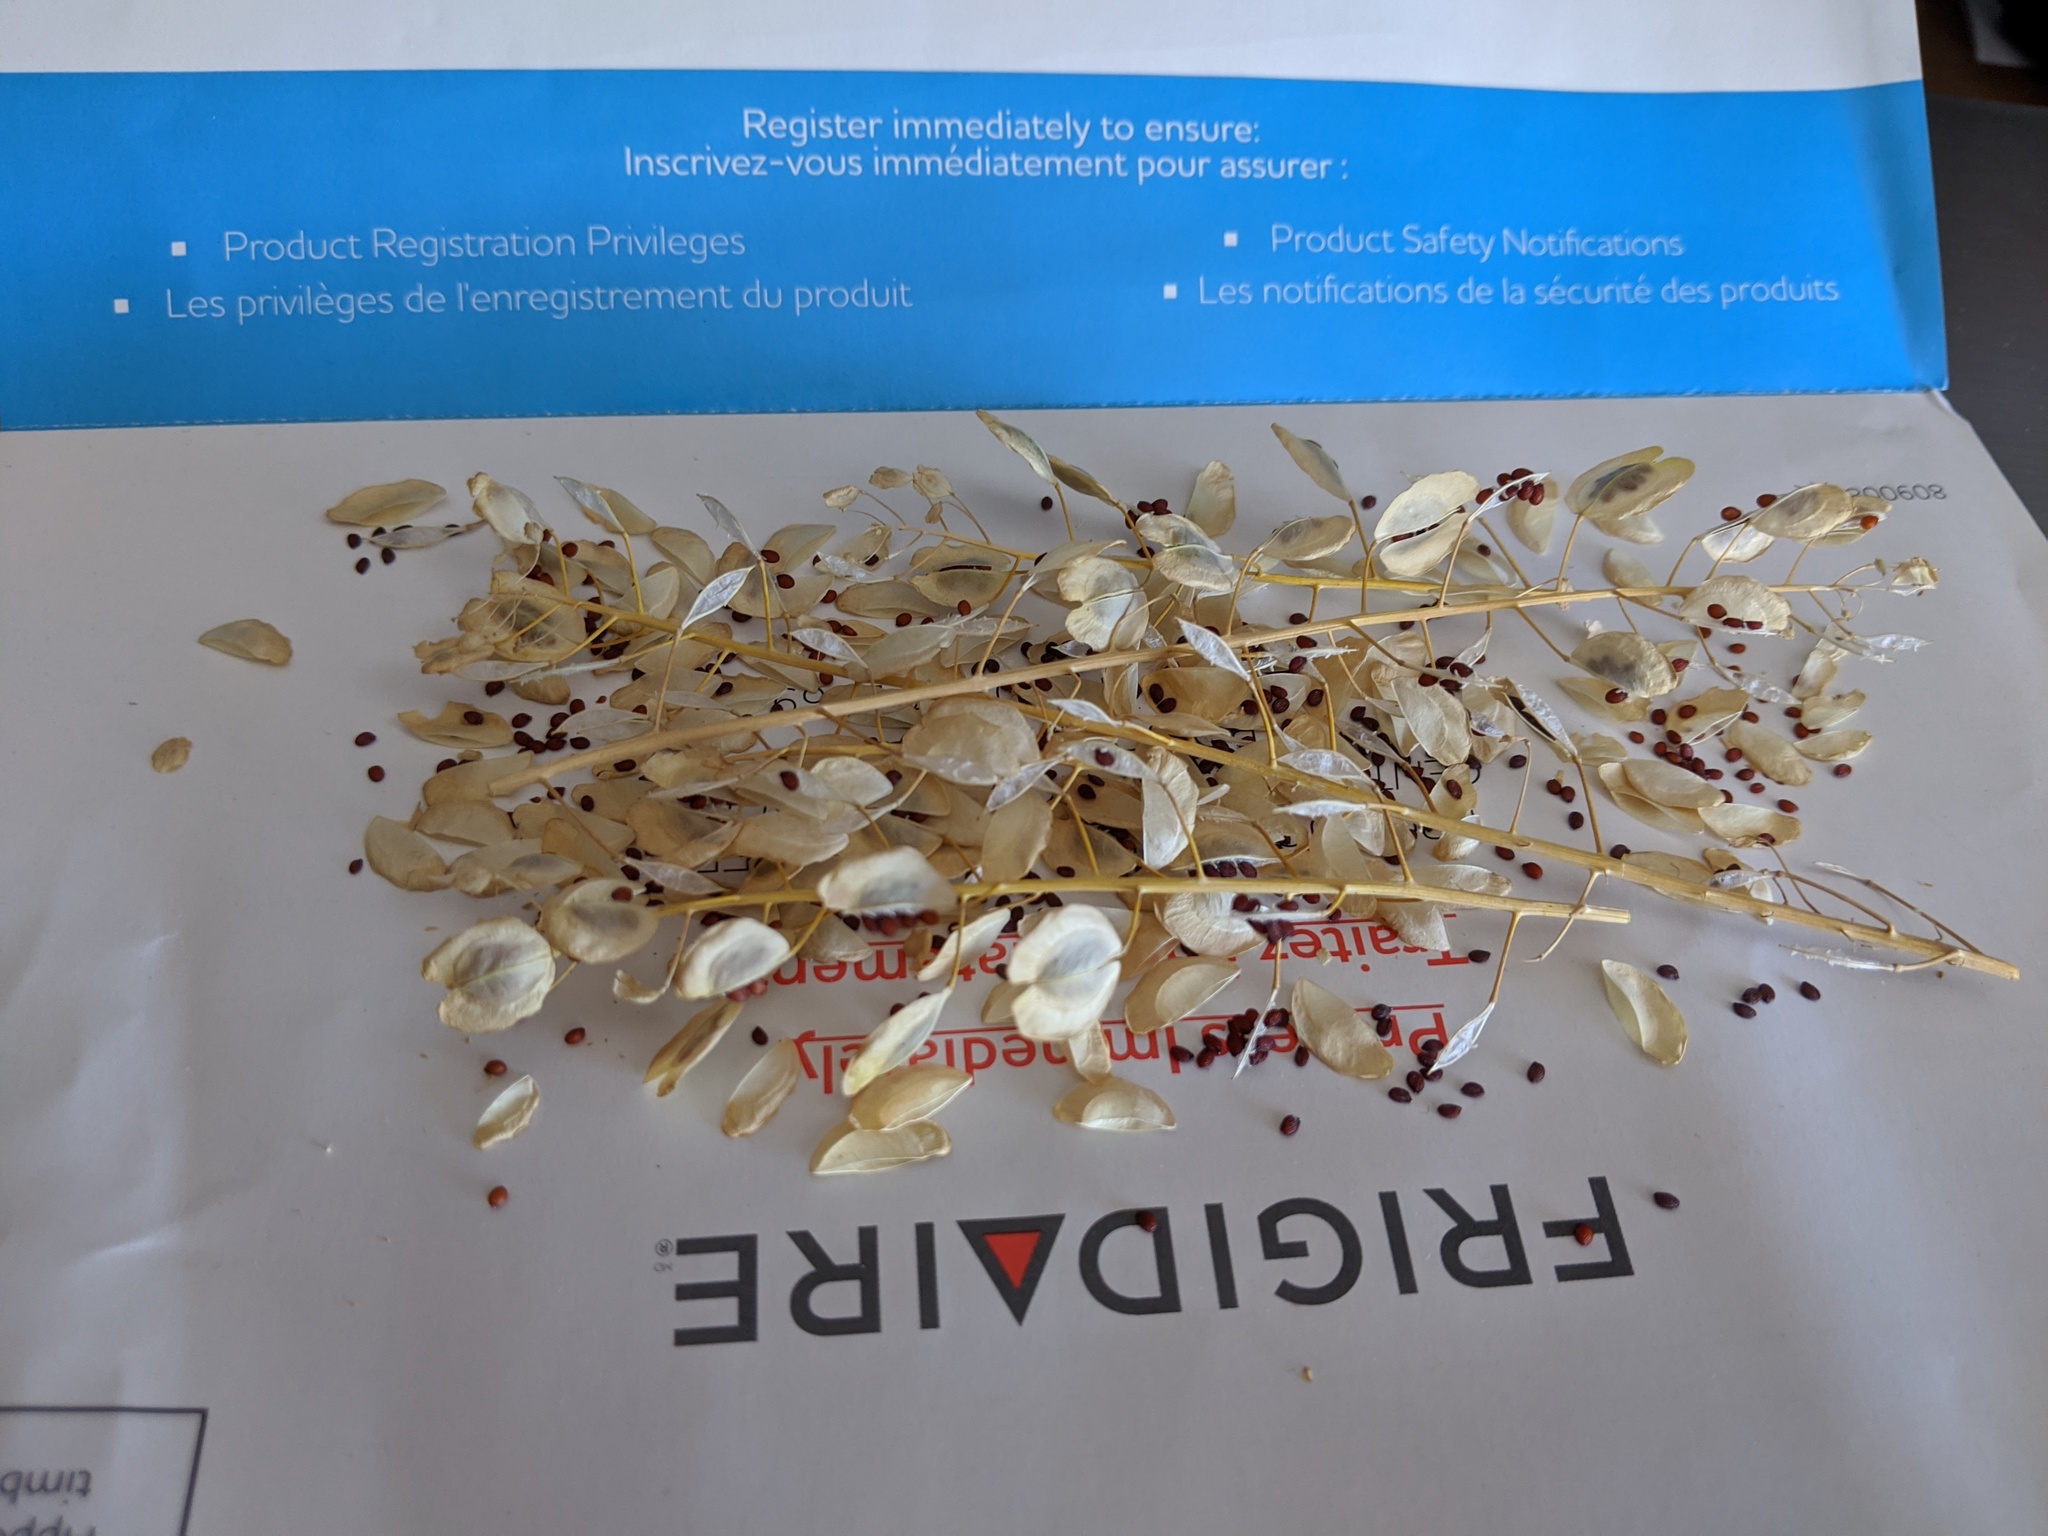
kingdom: Plantae
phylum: Tracheophyta
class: Magnoliopsida
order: Brassicales
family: Brassicaceae
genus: Thlaspi
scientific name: Thlaspi arvense
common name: Field pennycress
